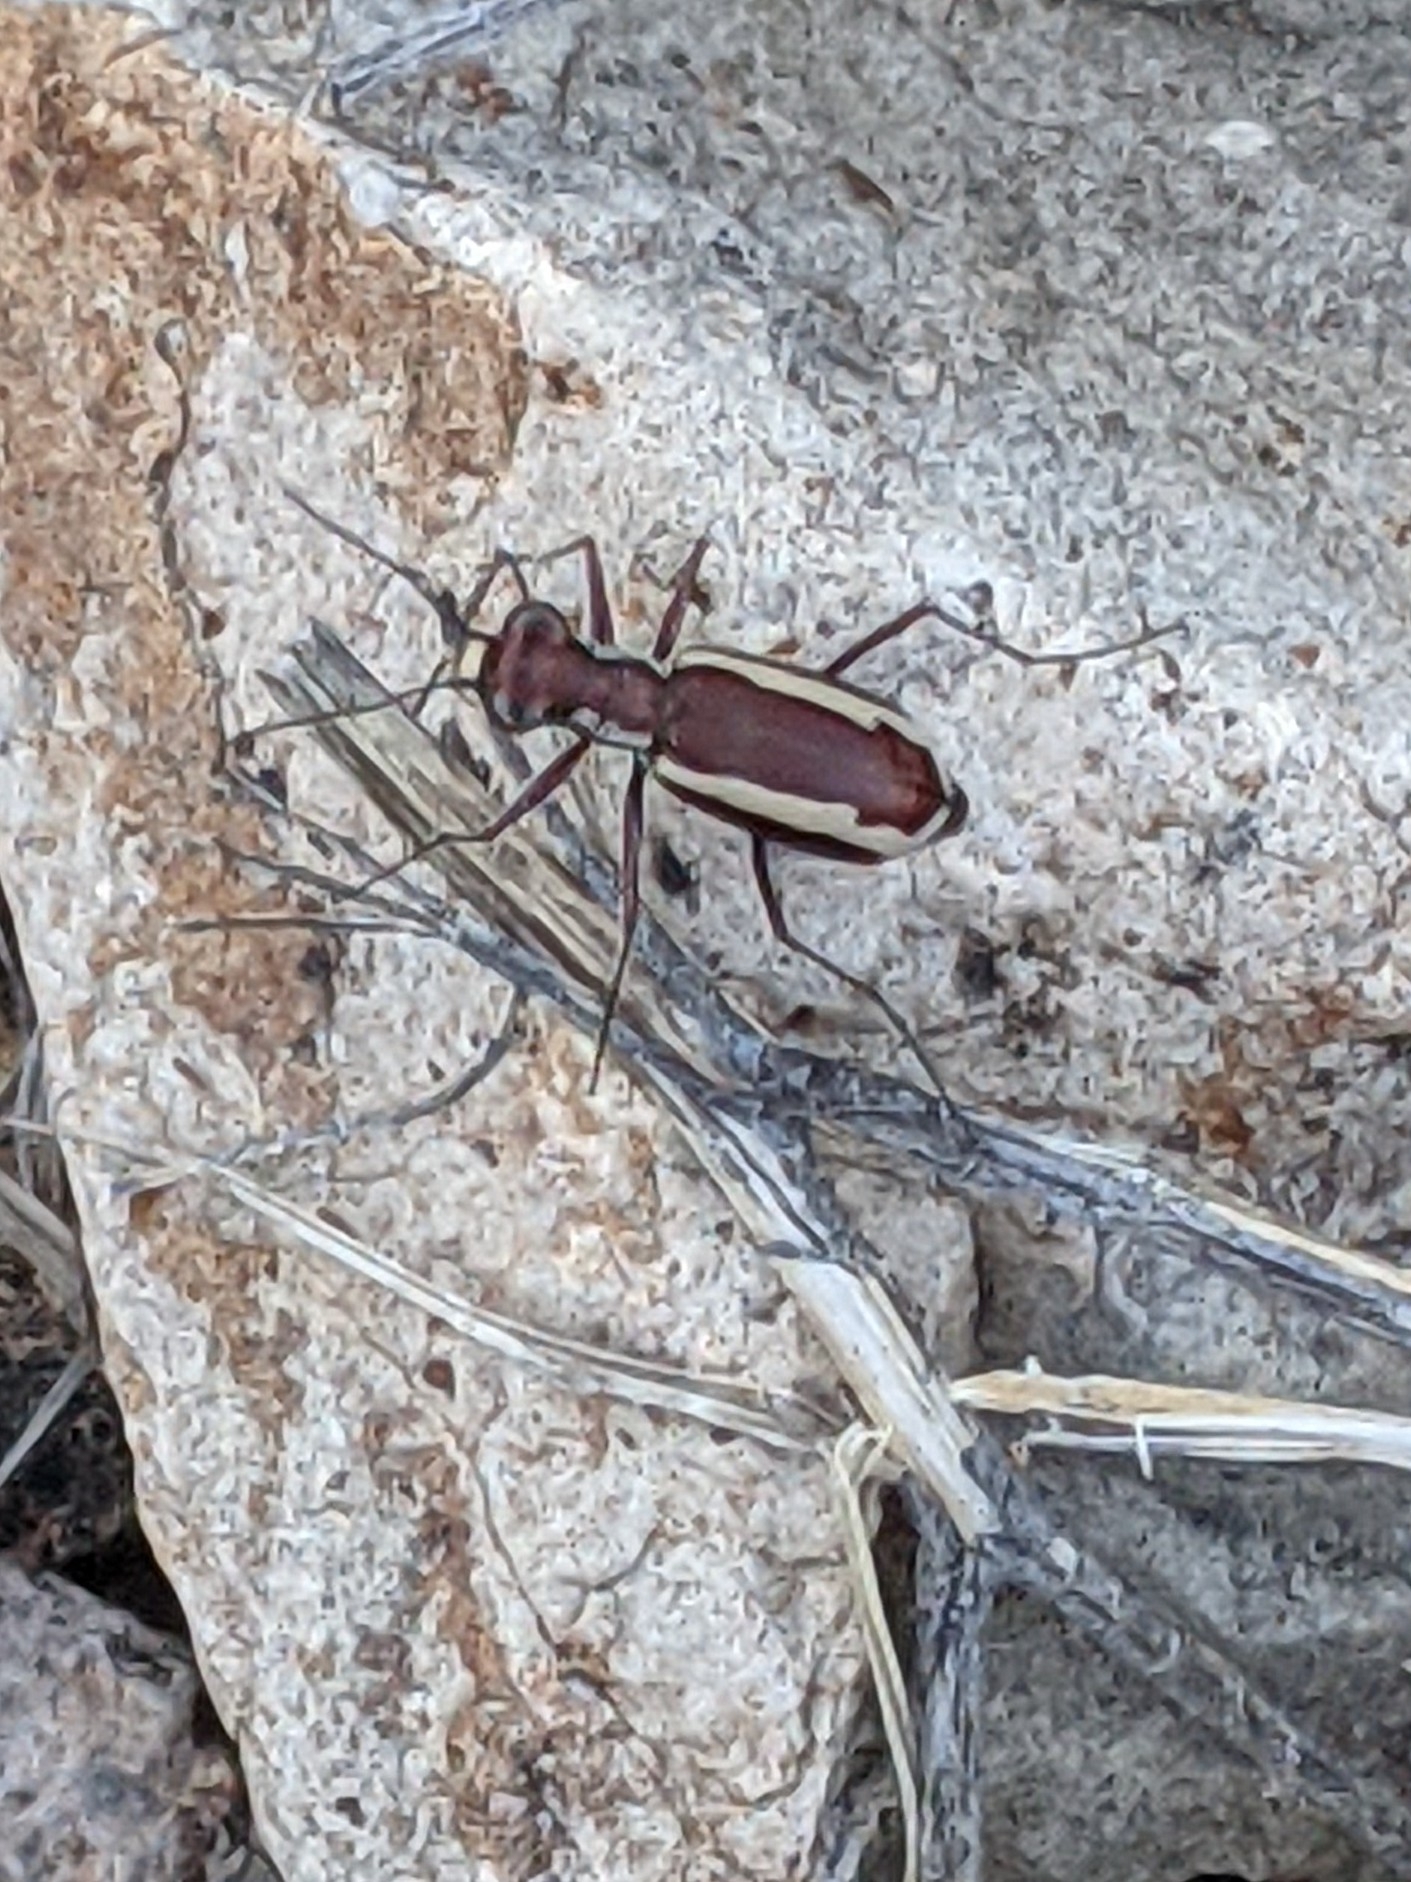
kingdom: Animalia
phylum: Arthropoda
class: Insecta
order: Coleoptera
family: Carabidae
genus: Cylindera
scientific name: Cylindera lemniscata
